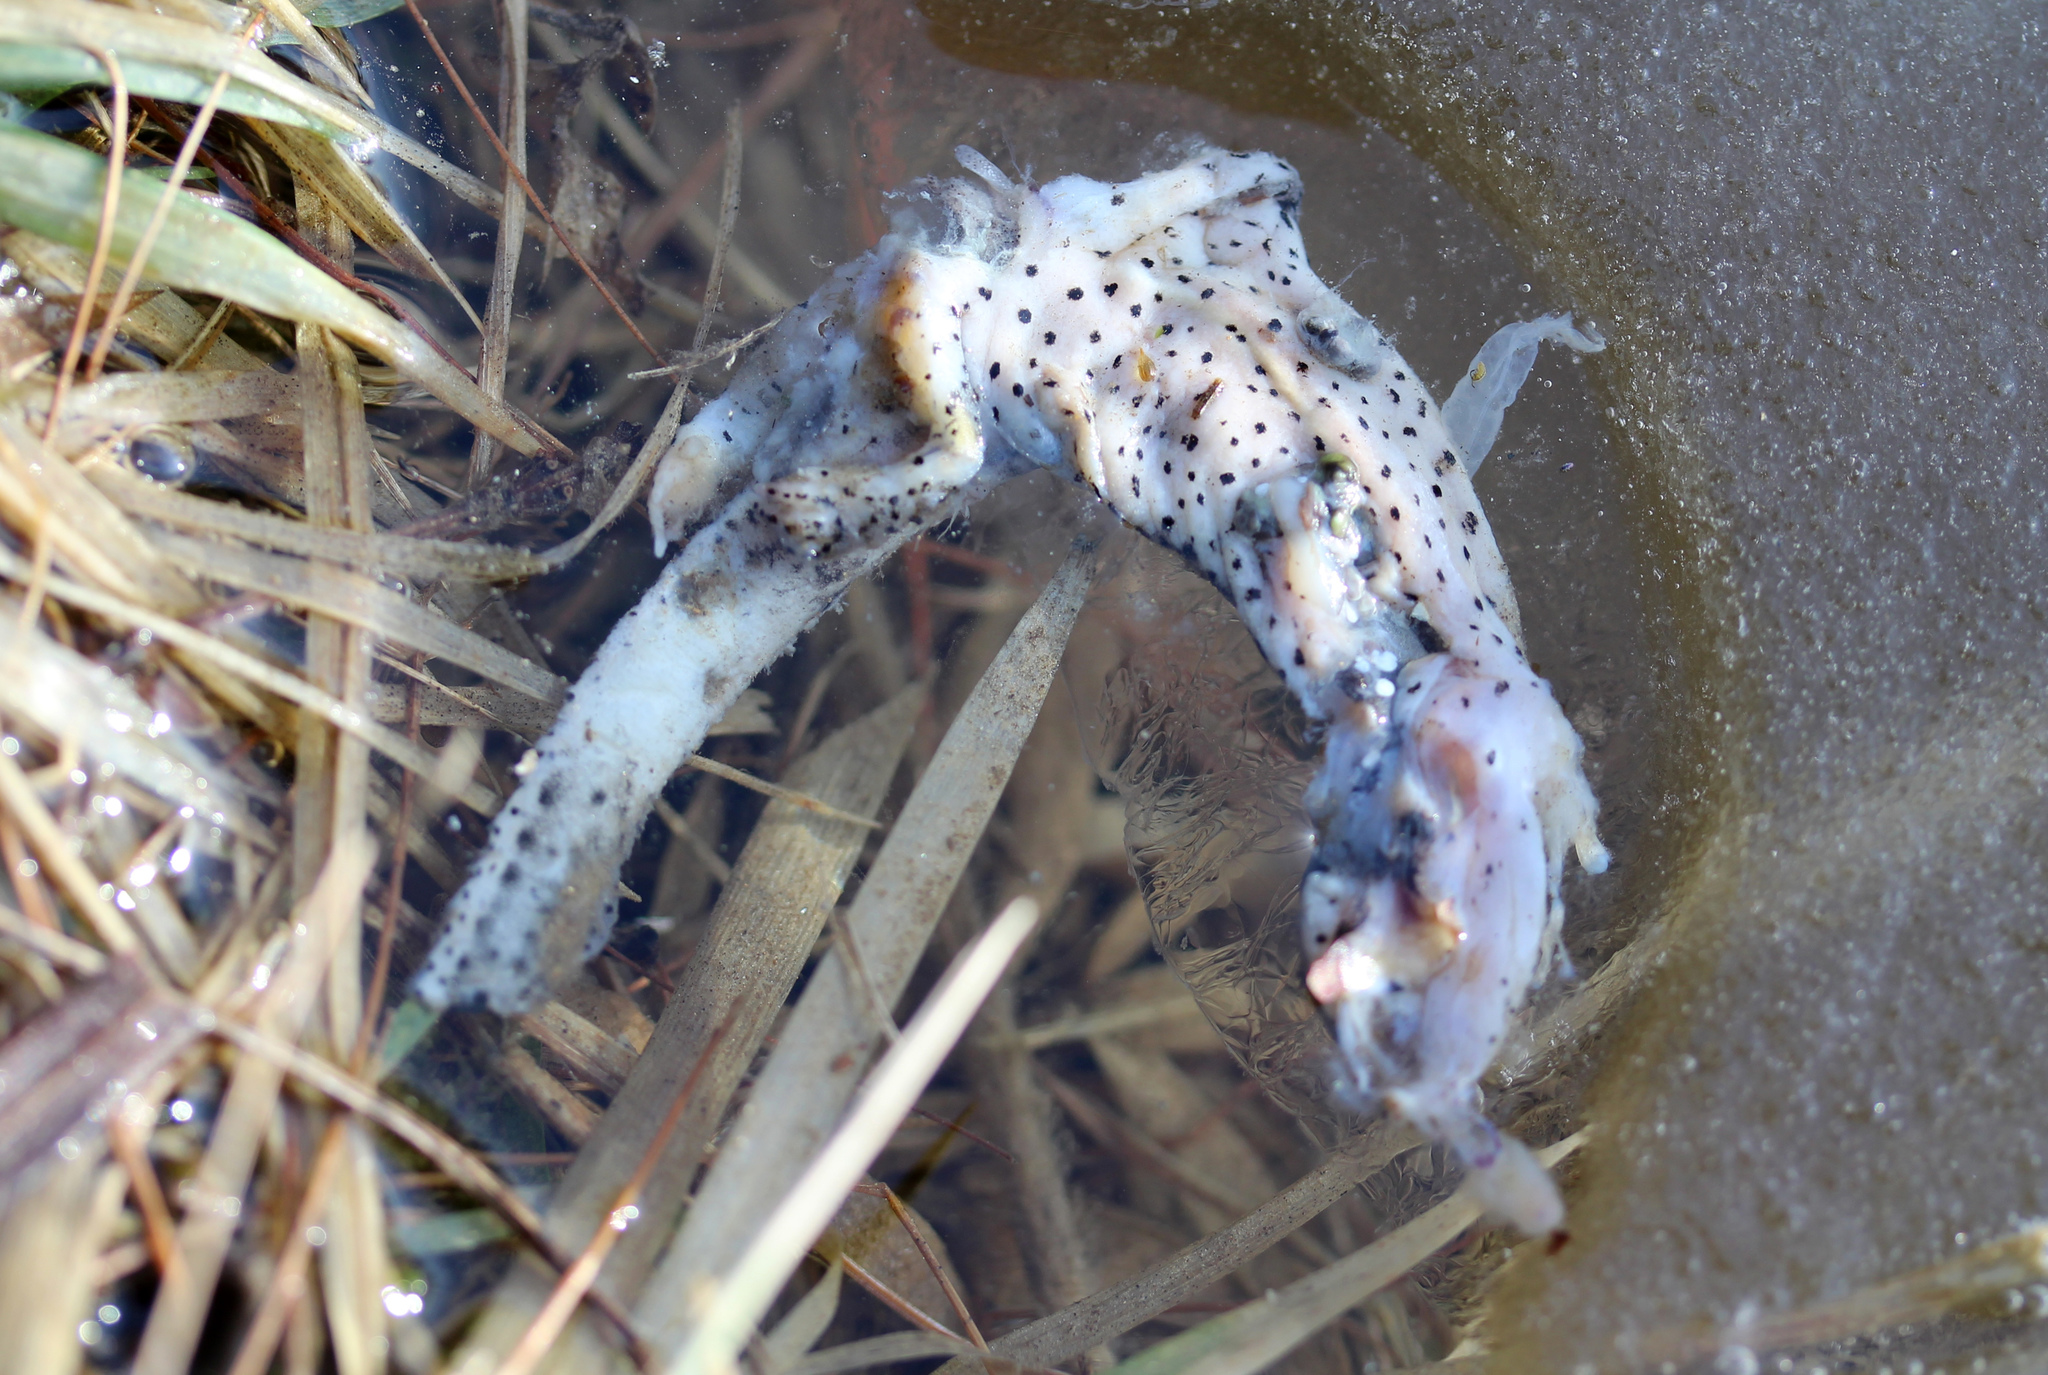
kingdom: Animalia
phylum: Chordata
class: Amphibia
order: Caudata
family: Salamandridae
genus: Notophthalmus
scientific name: Notophthalmus viridescens
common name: Eastern newt
